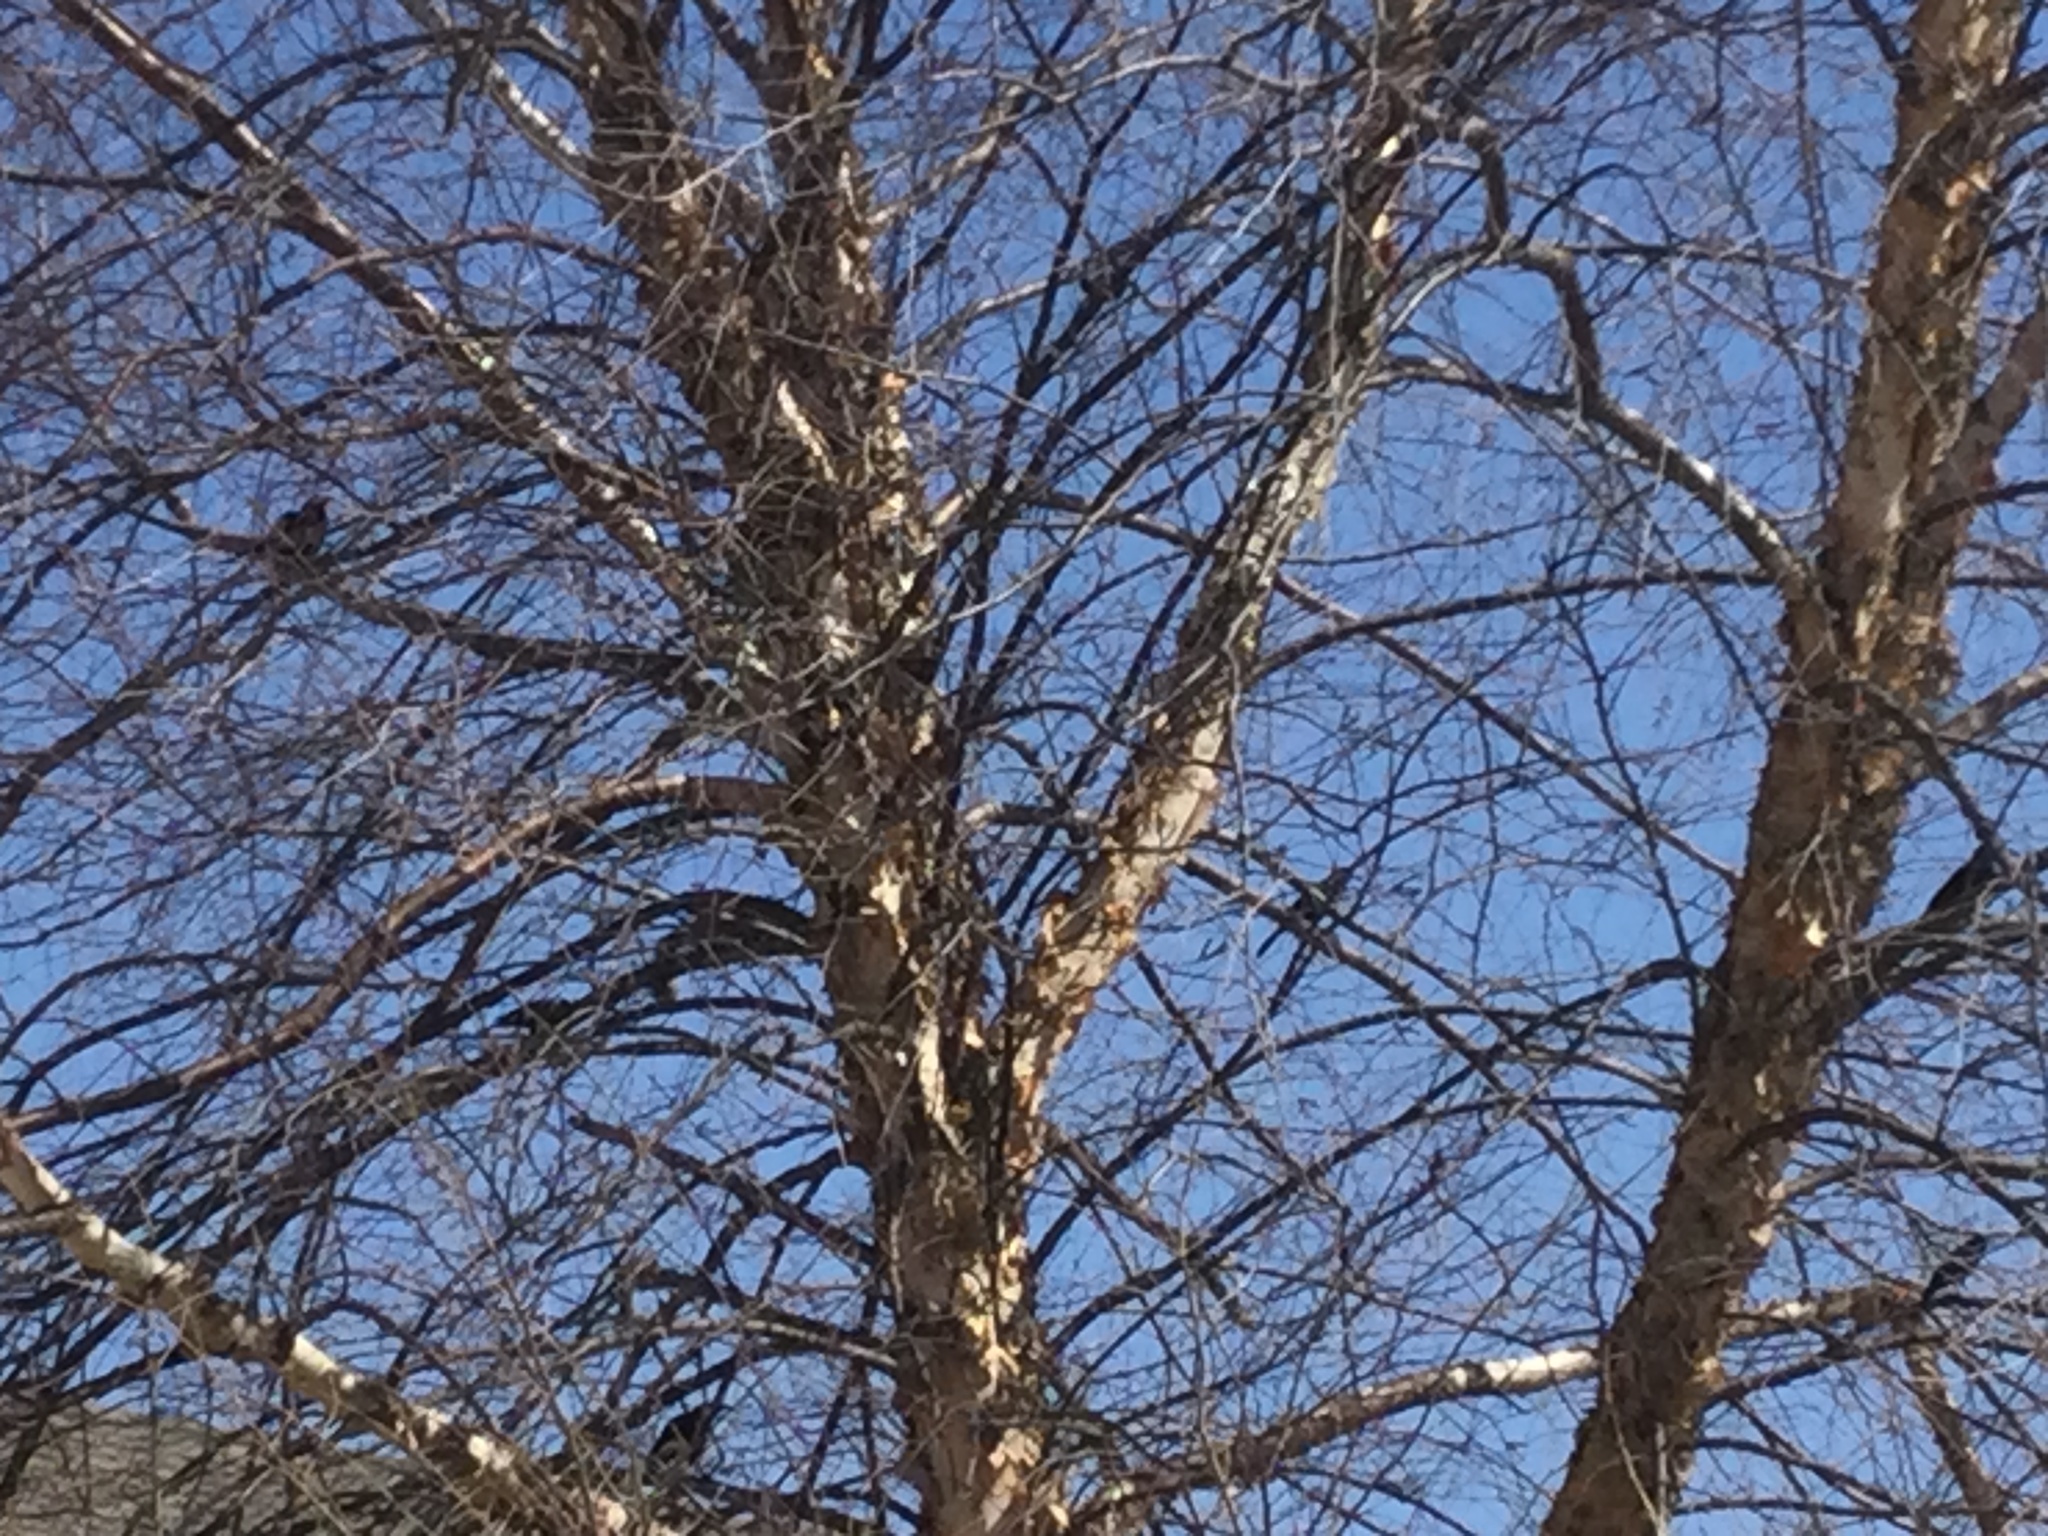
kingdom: Animalia
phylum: Chordata
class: Aves
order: Passeriformes
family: Corvidae
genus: Corvus
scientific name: Corvus brachyrhynchos
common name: American crow
